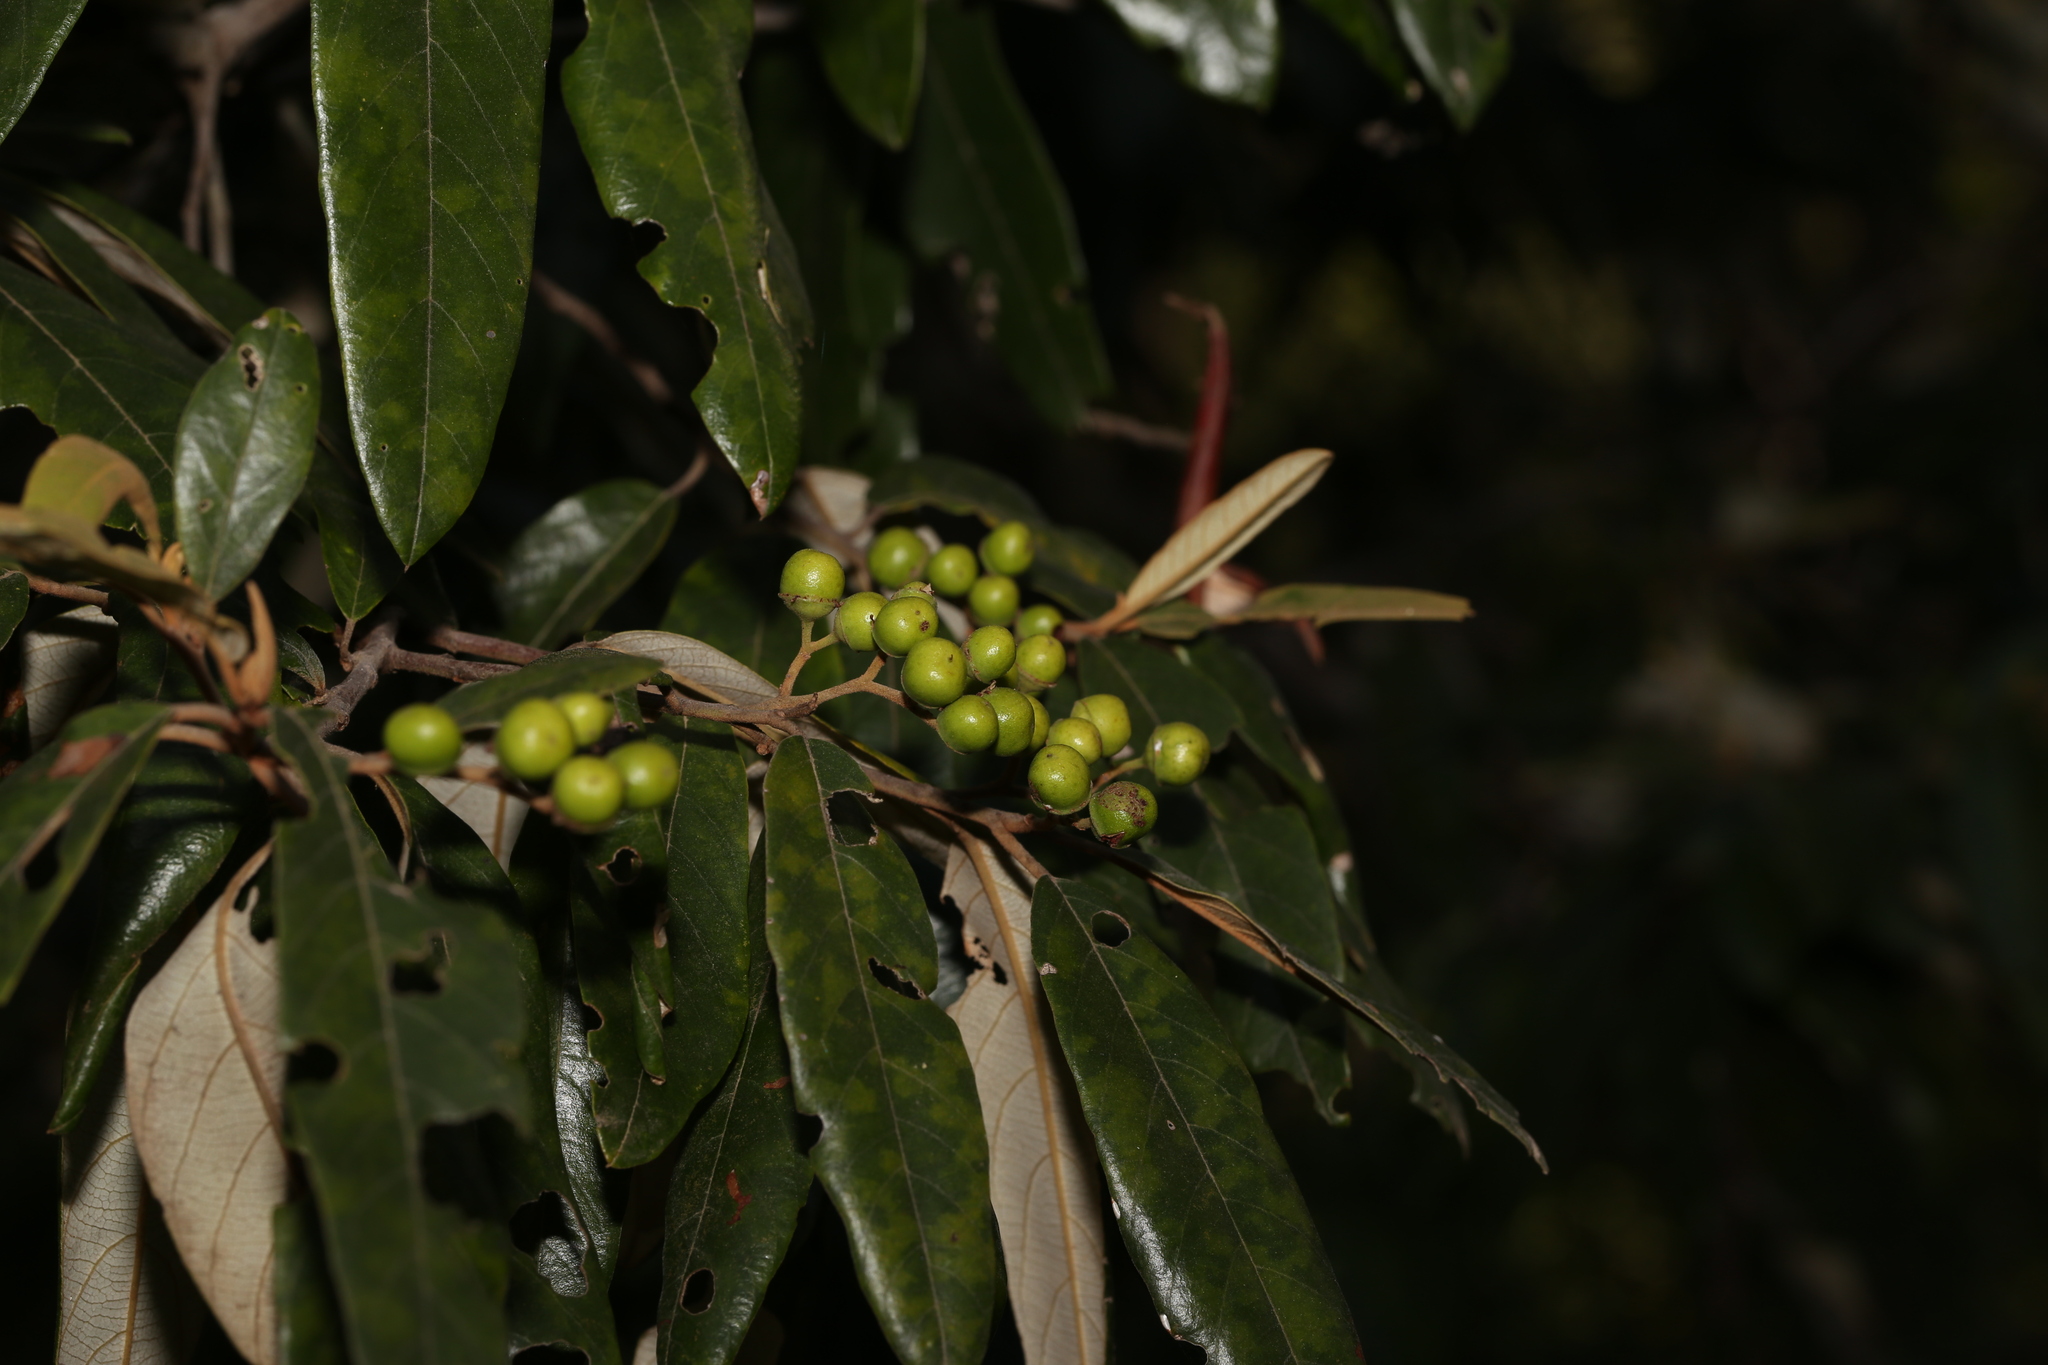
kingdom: Plantae
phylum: Tracheophyta
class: Magnoliopsida
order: Rosales
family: Rhamnaceae
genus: Alphitonia
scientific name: Alphitonia excelsa
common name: Red ash
